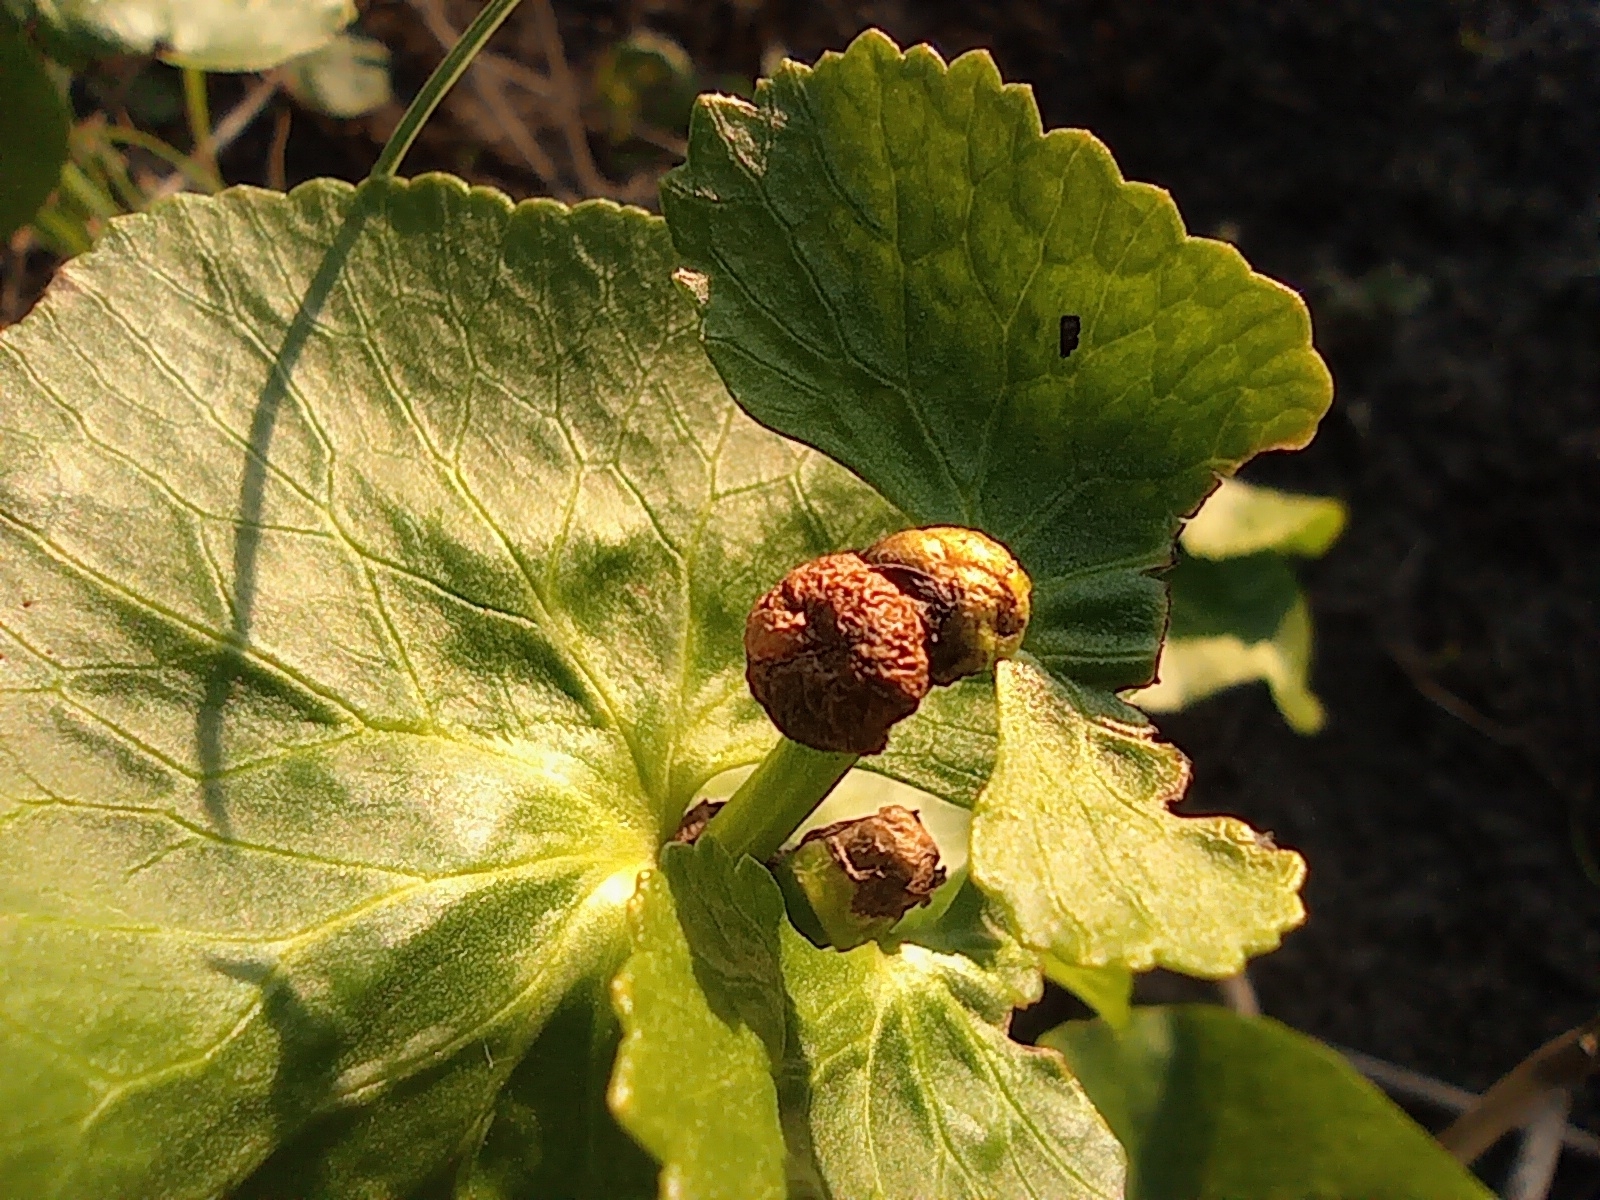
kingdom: Plantae
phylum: Tracheophyta
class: Magnoliopsida
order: Ranunculales
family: Ranunculaceae
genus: Caltha
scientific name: Caltha palustris
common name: Marsh marigold
